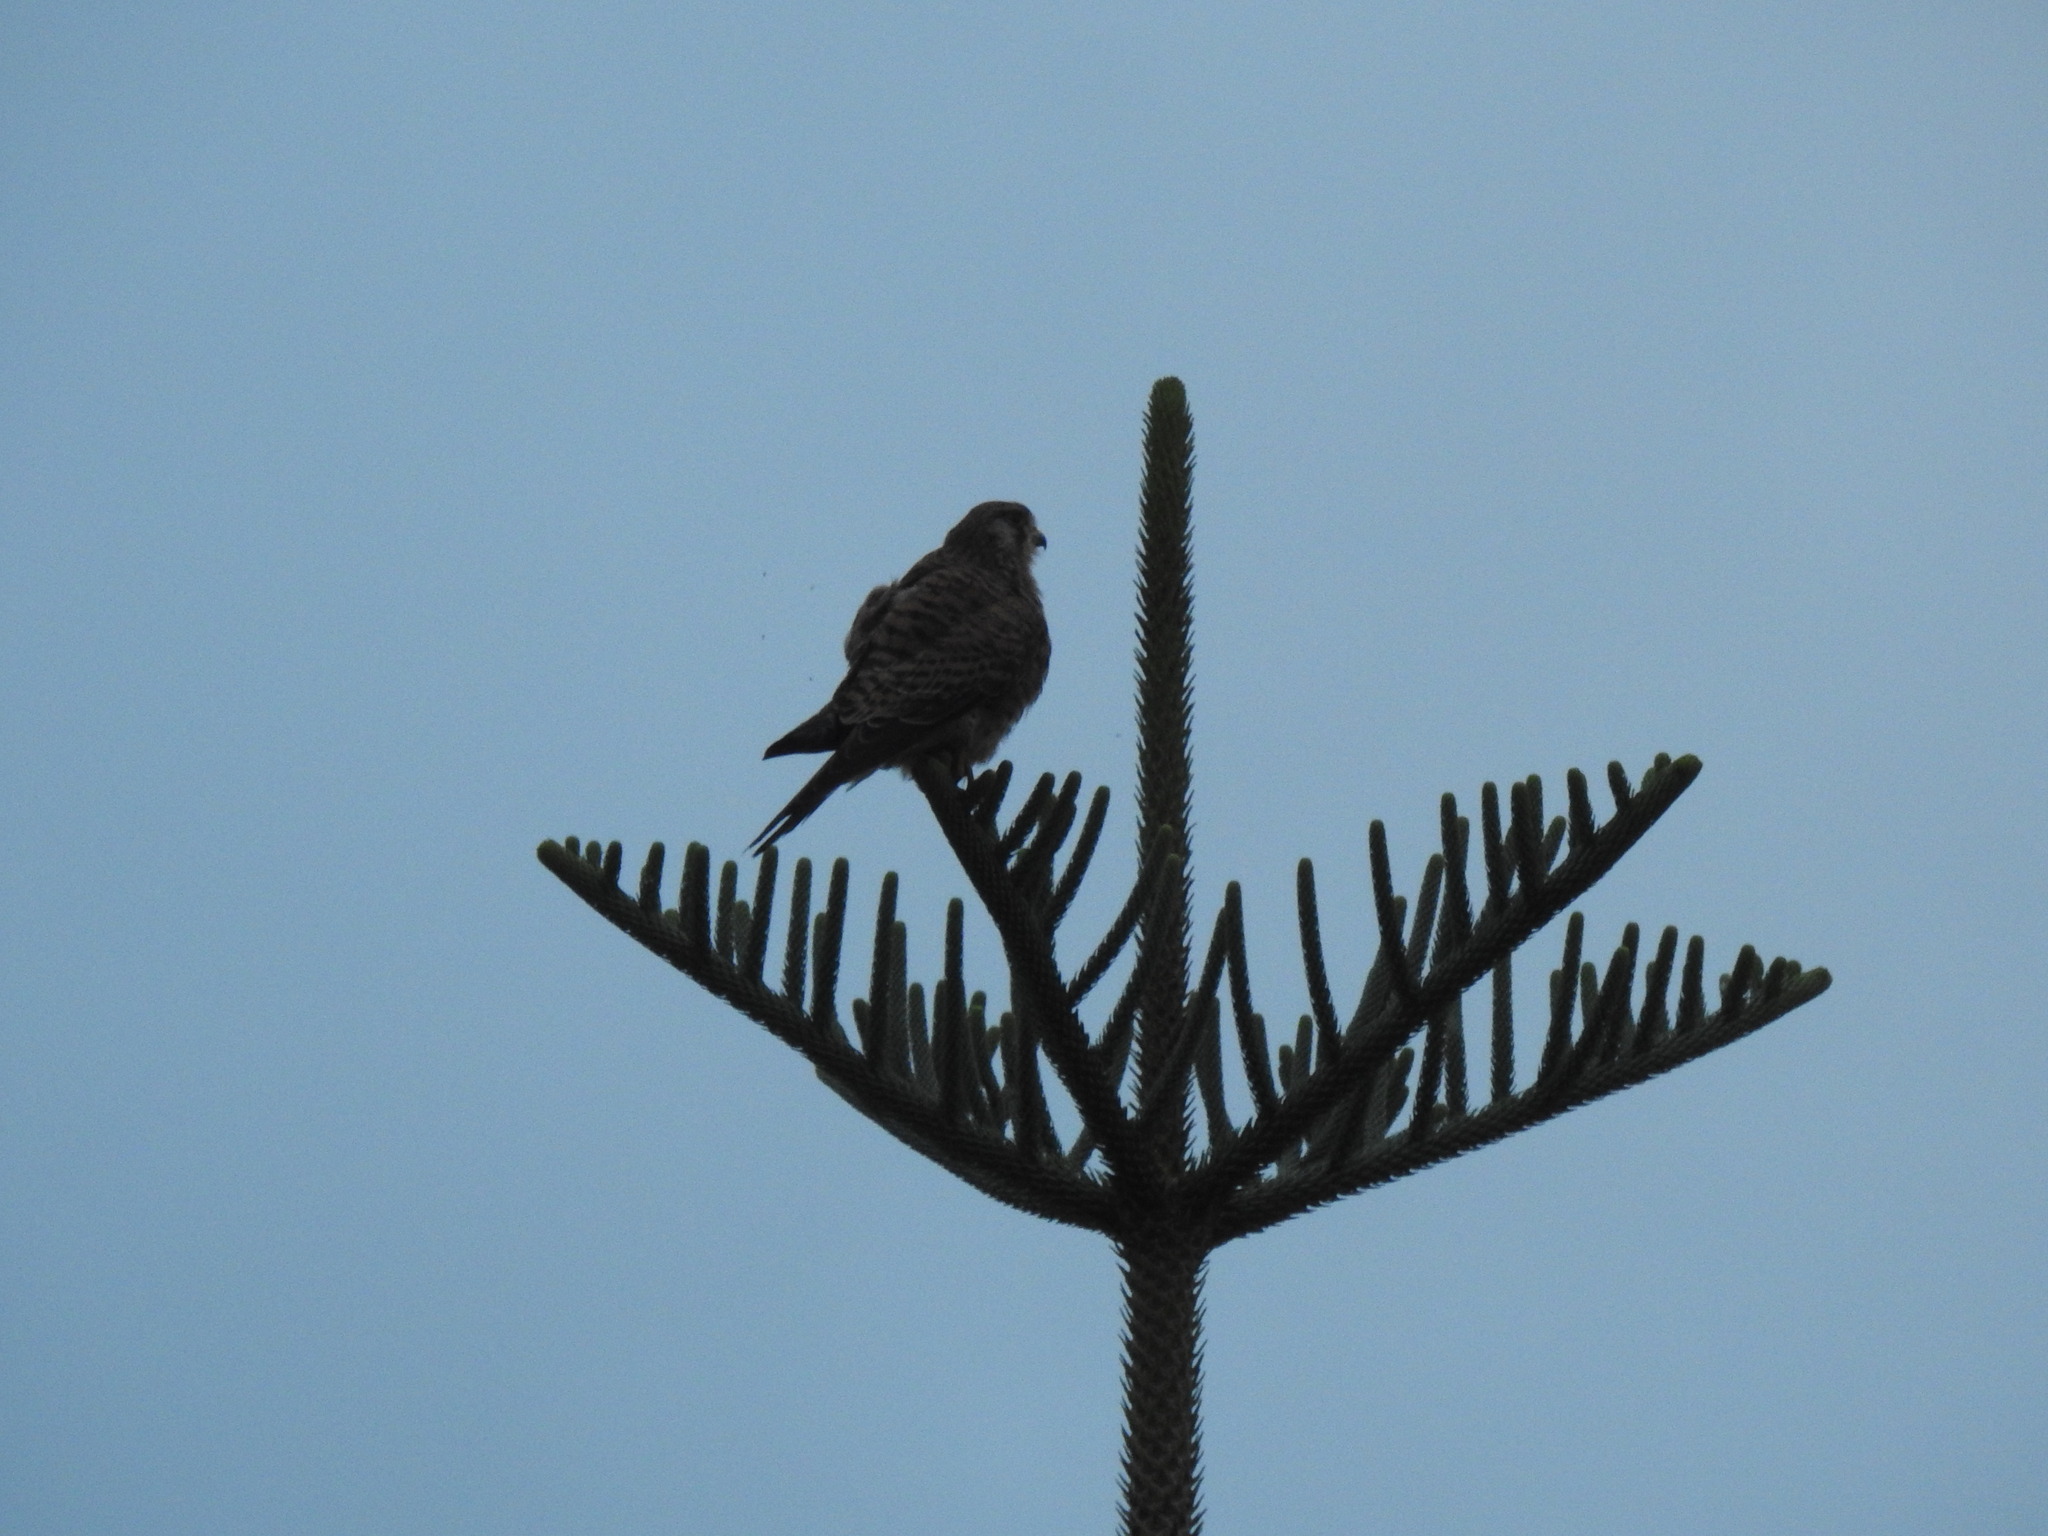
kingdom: Animalia
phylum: Chordata
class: Aves
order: Falconiformes
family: Falconidae
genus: Falco
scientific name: Falco tinnunculus
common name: Common kestrel
